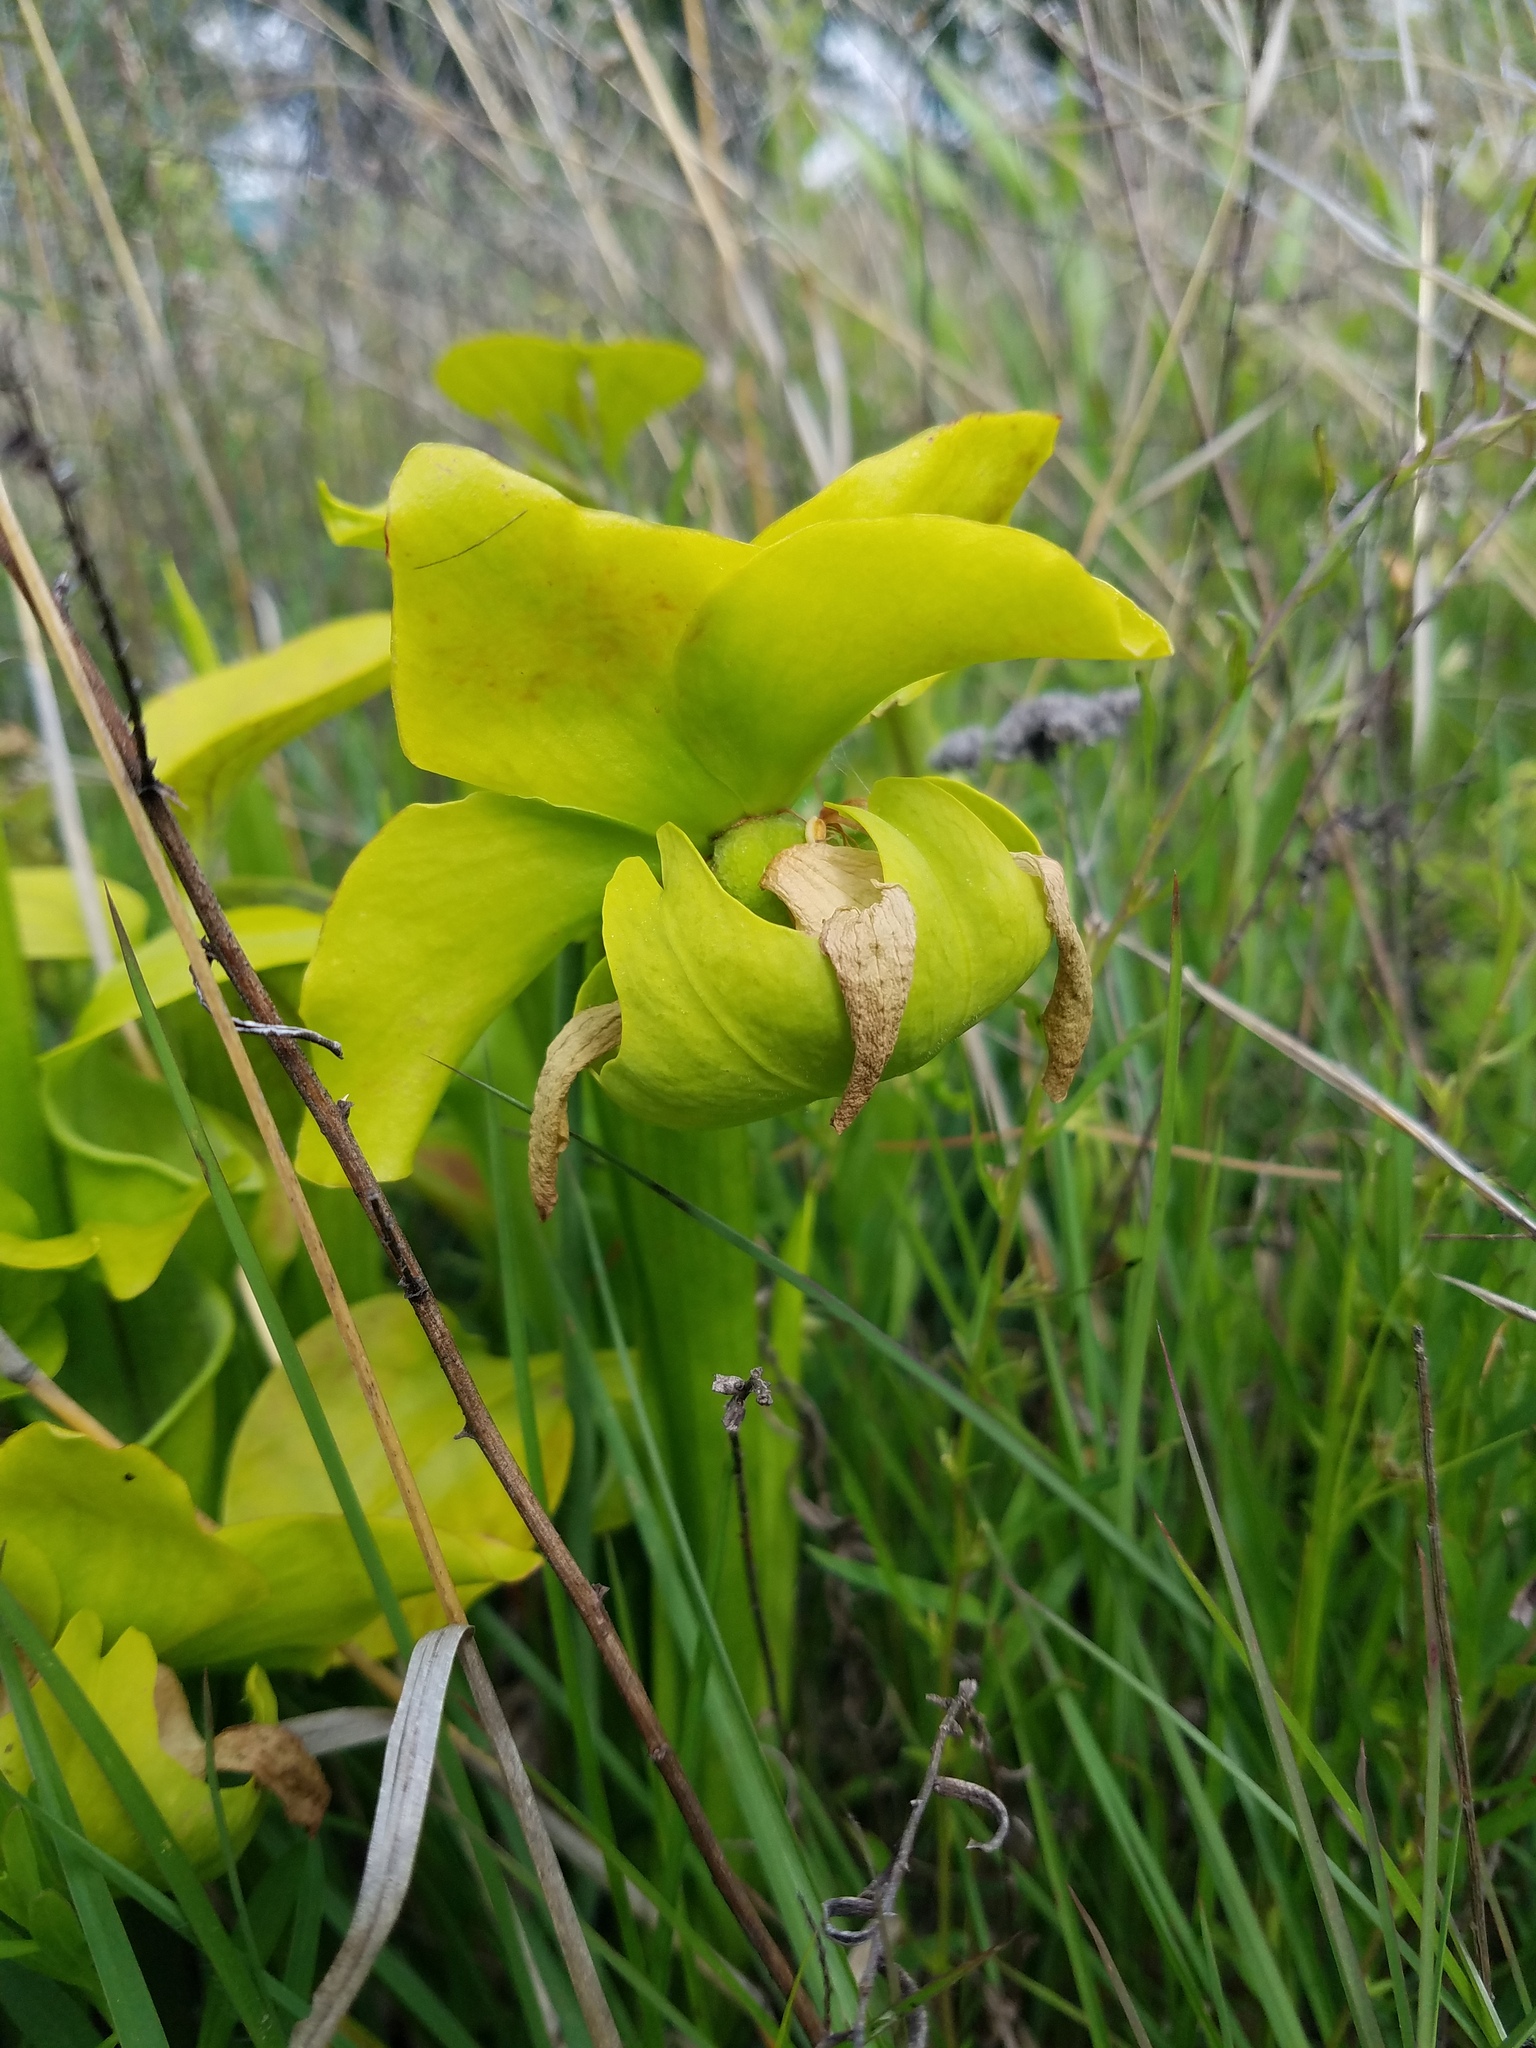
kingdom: Plantae
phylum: Tracheophyta
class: Magnoliopsida
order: Ericales
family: Sarraceniaceae
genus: Sarracenia
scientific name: Sarracenia oreophila
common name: Green pitcherplant
